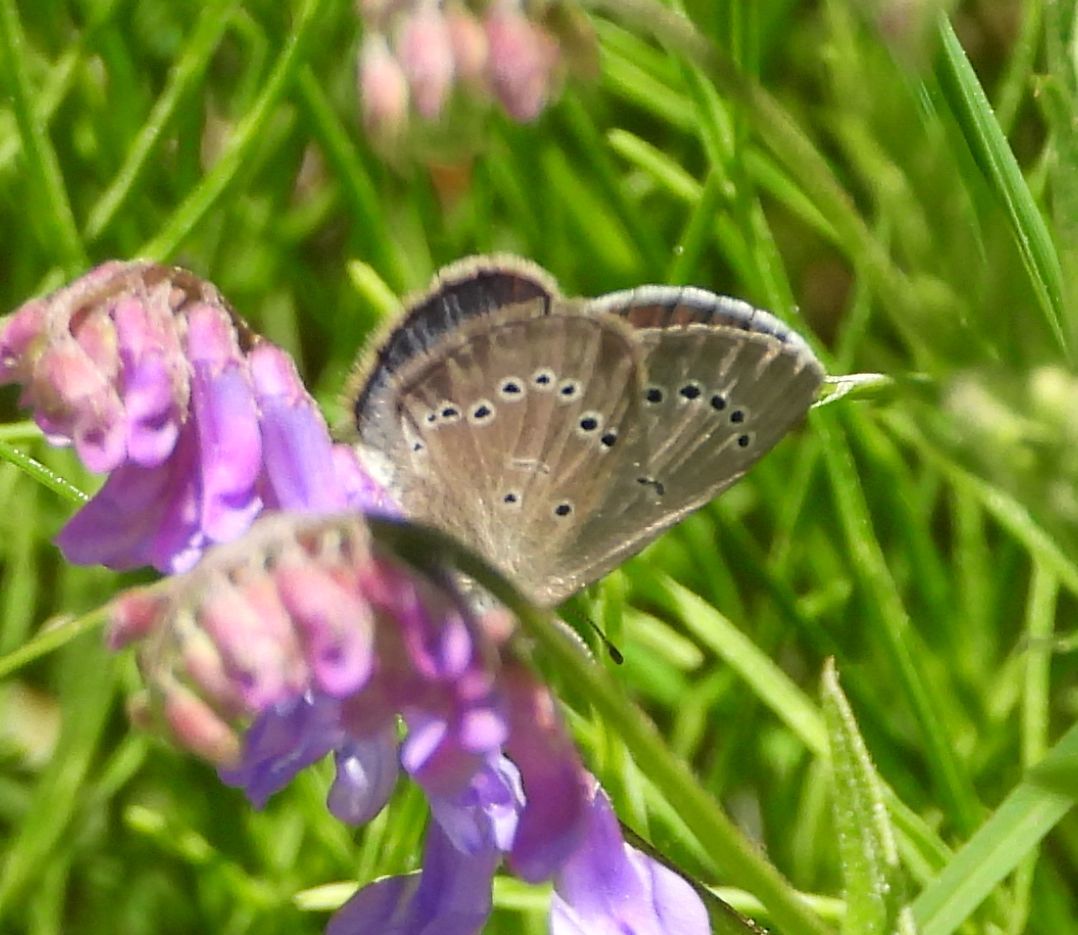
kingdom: Animalia
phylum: Arthropoda
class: Insecta
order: Lepidoptera
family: Lycaenidae
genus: Glaucopsyche
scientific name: Glaucopsyche lygdamus
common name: Silvery blue
